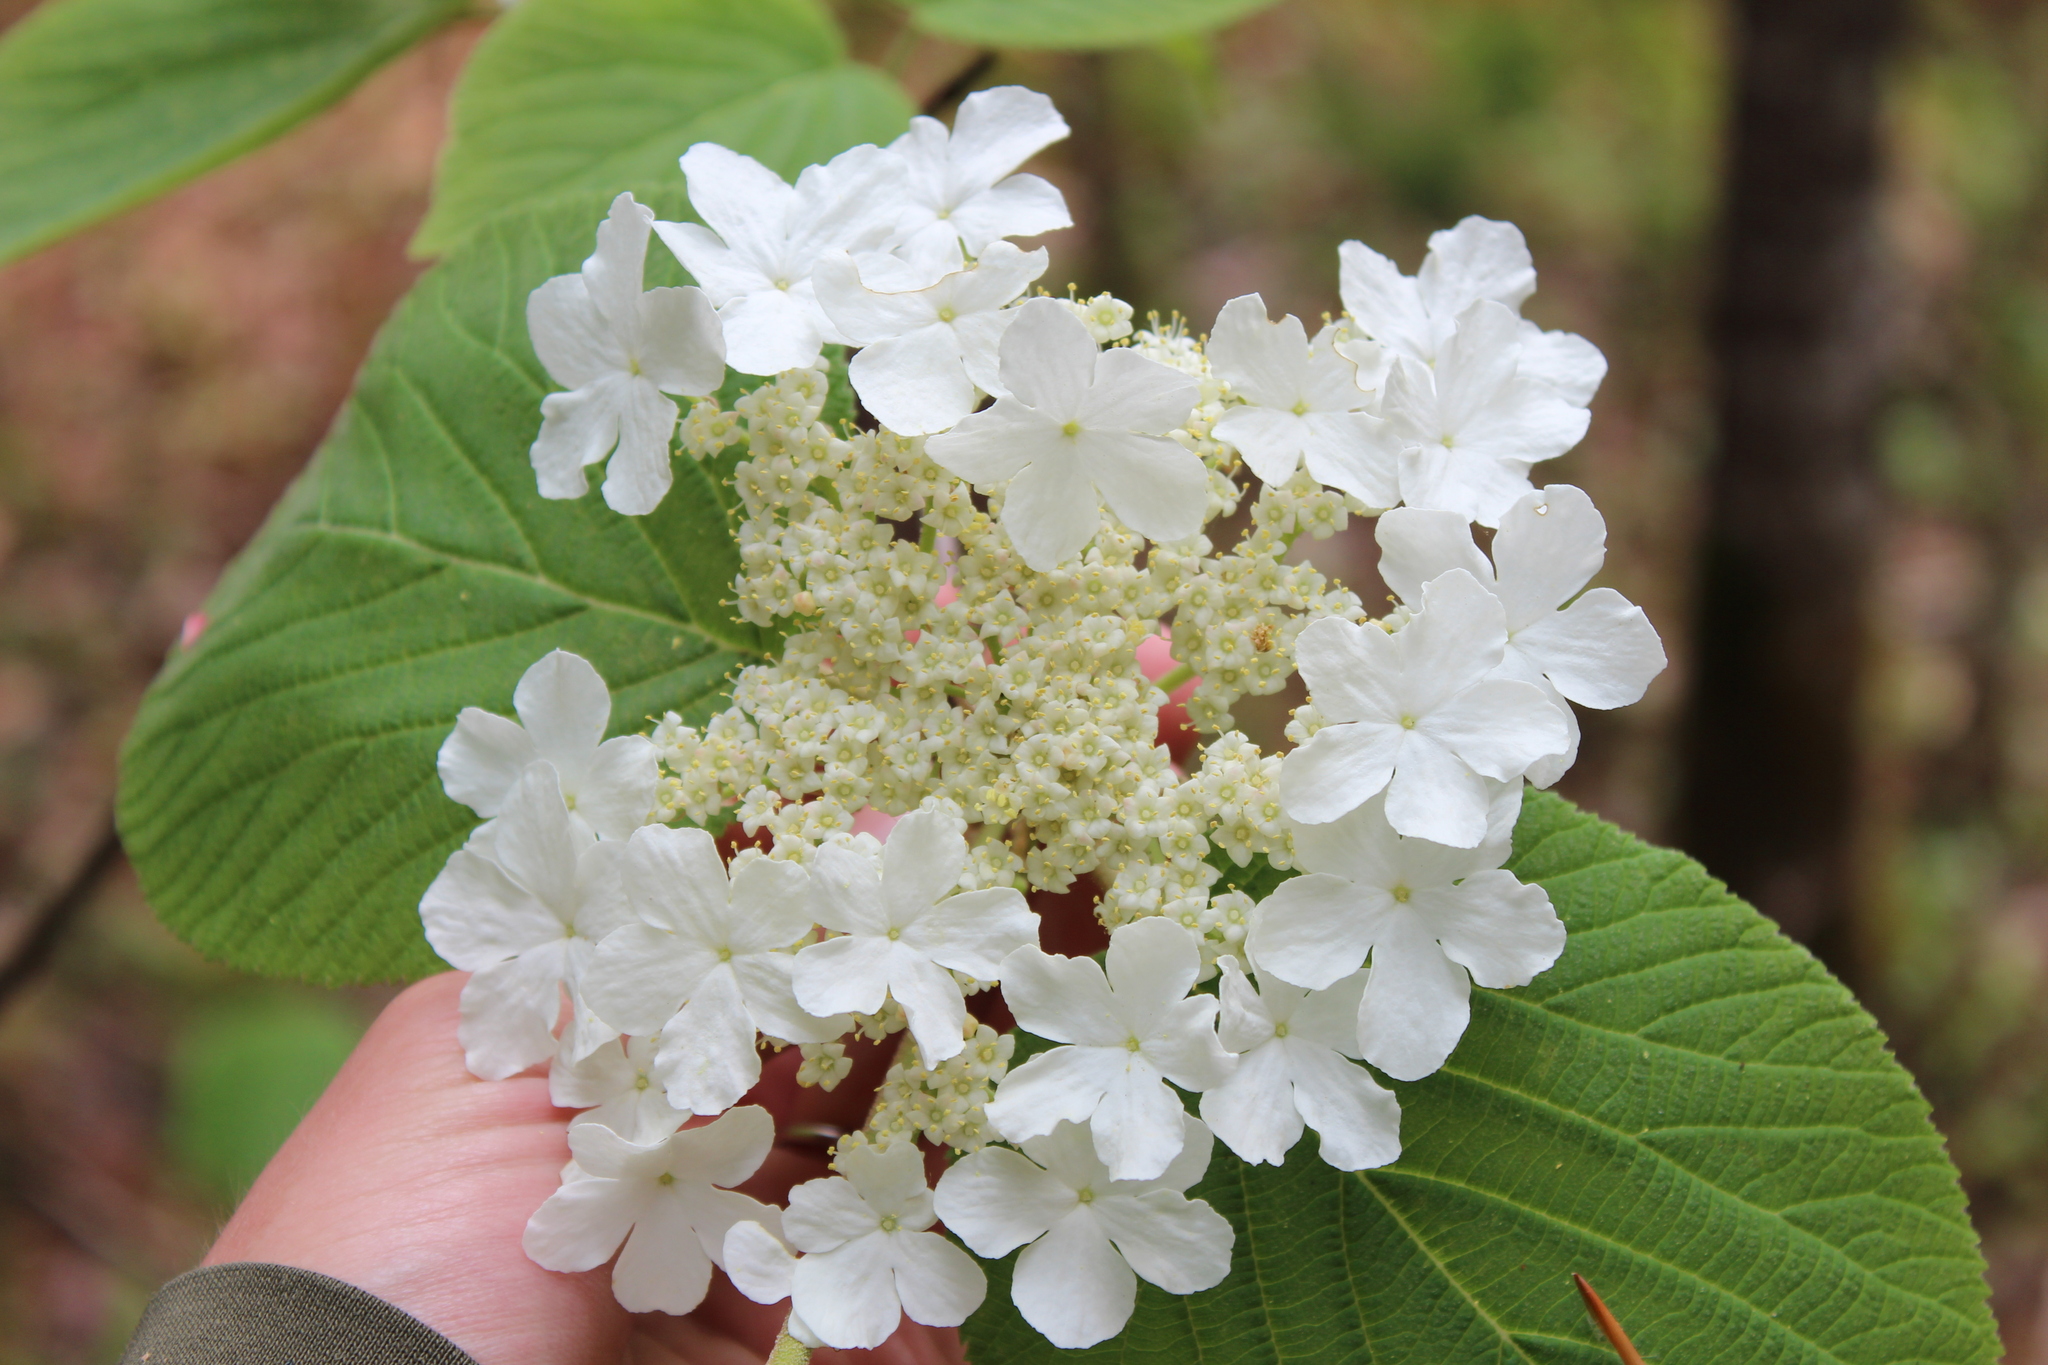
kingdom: Plantae
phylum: Tracheophyta
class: Magnoliopsida
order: Dipsacales
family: Viburnaceae
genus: Viburnum
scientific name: Viburnum lantanoides
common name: Hobblebush
